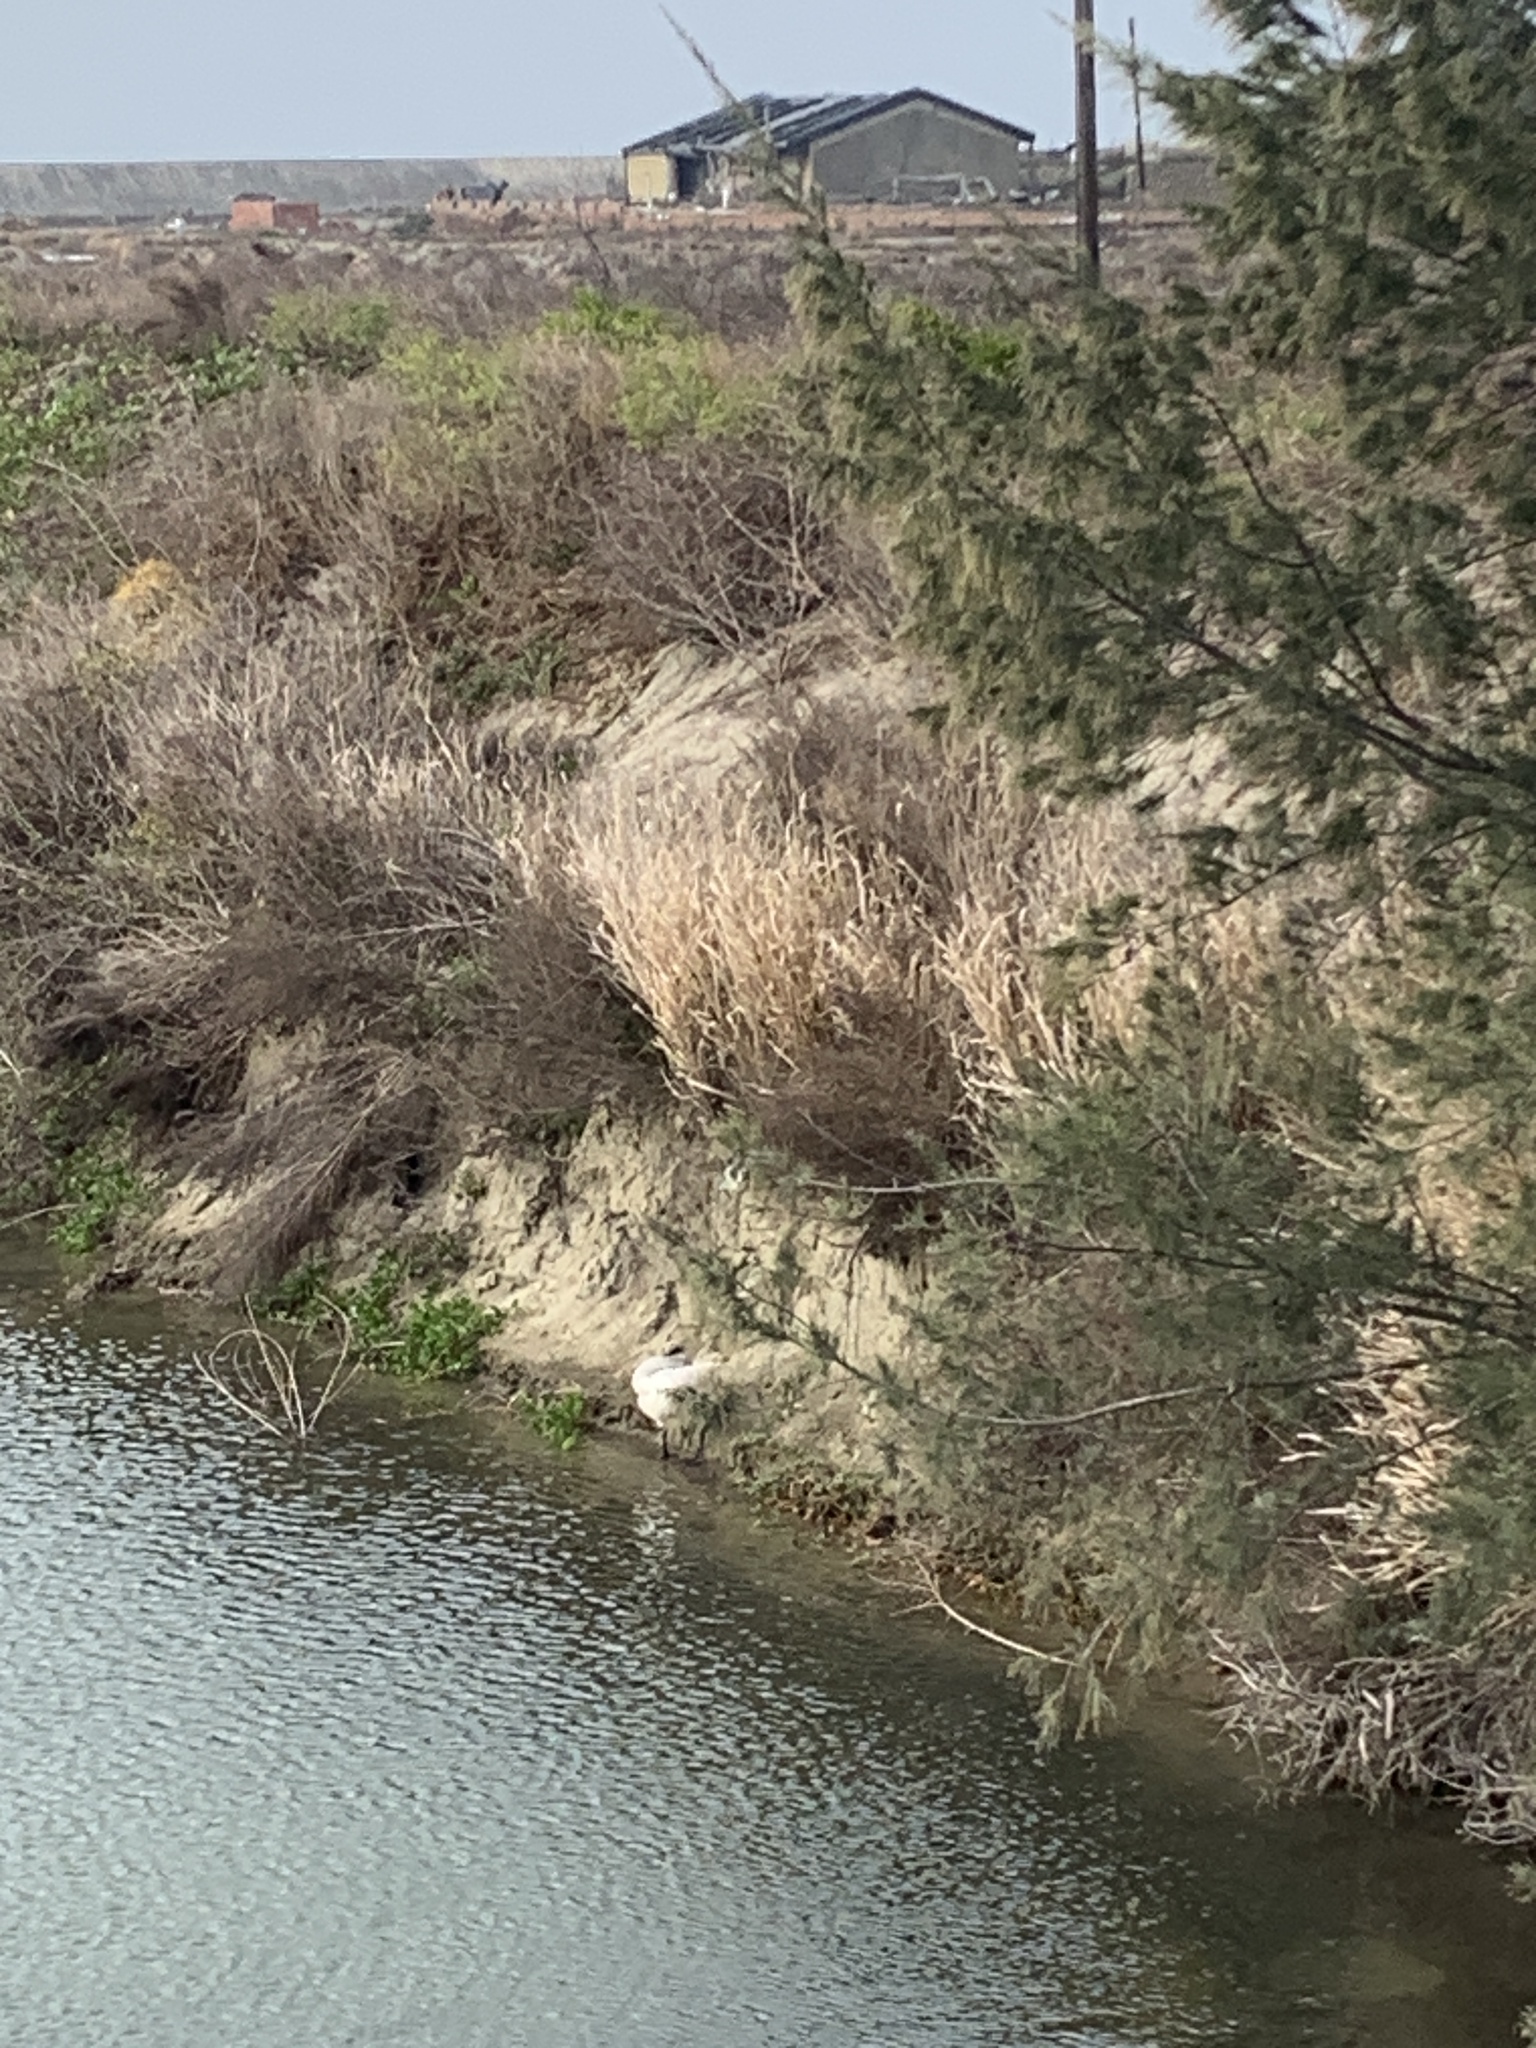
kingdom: Animalia
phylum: Chordata
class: Aves
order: Anseriformes
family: Anatidae
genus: Cygnus
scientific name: Cygnus cygnus
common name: Whooper swan
